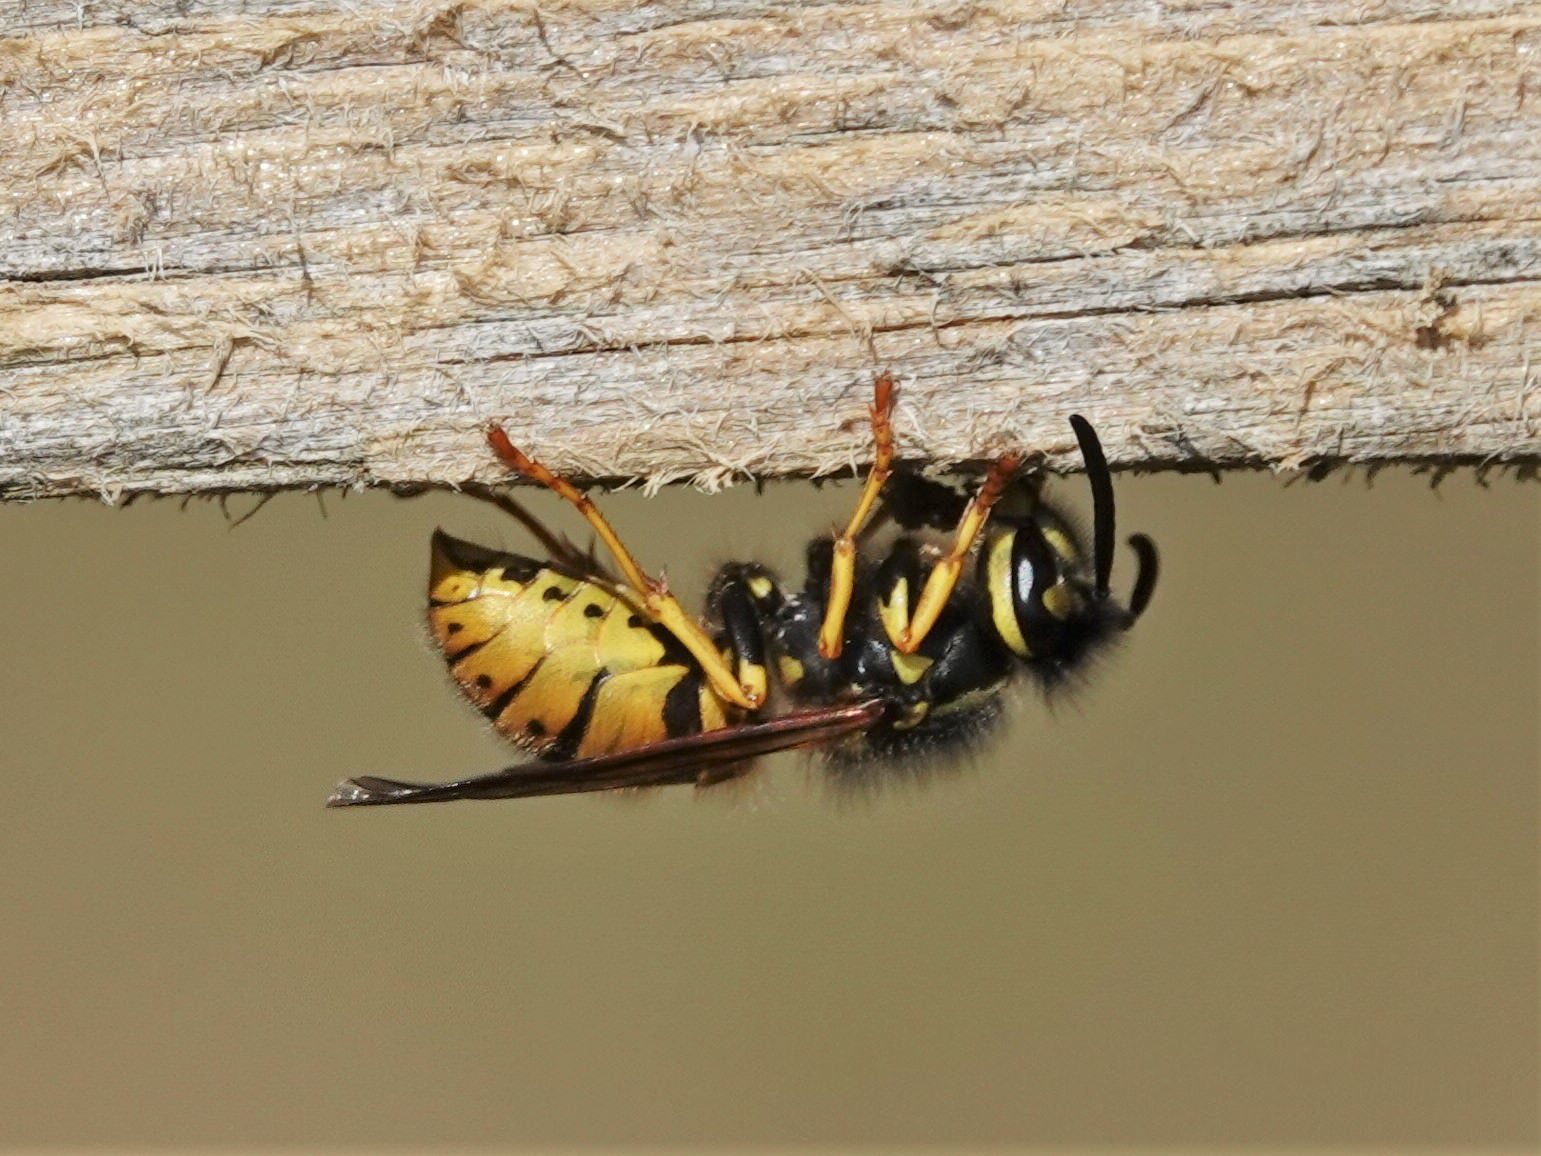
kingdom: Animalia
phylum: Arthropoda
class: Insecta
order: Hymenoptera
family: Vespidae
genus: Vespula
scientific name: Vespula germanica
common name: German wasp
